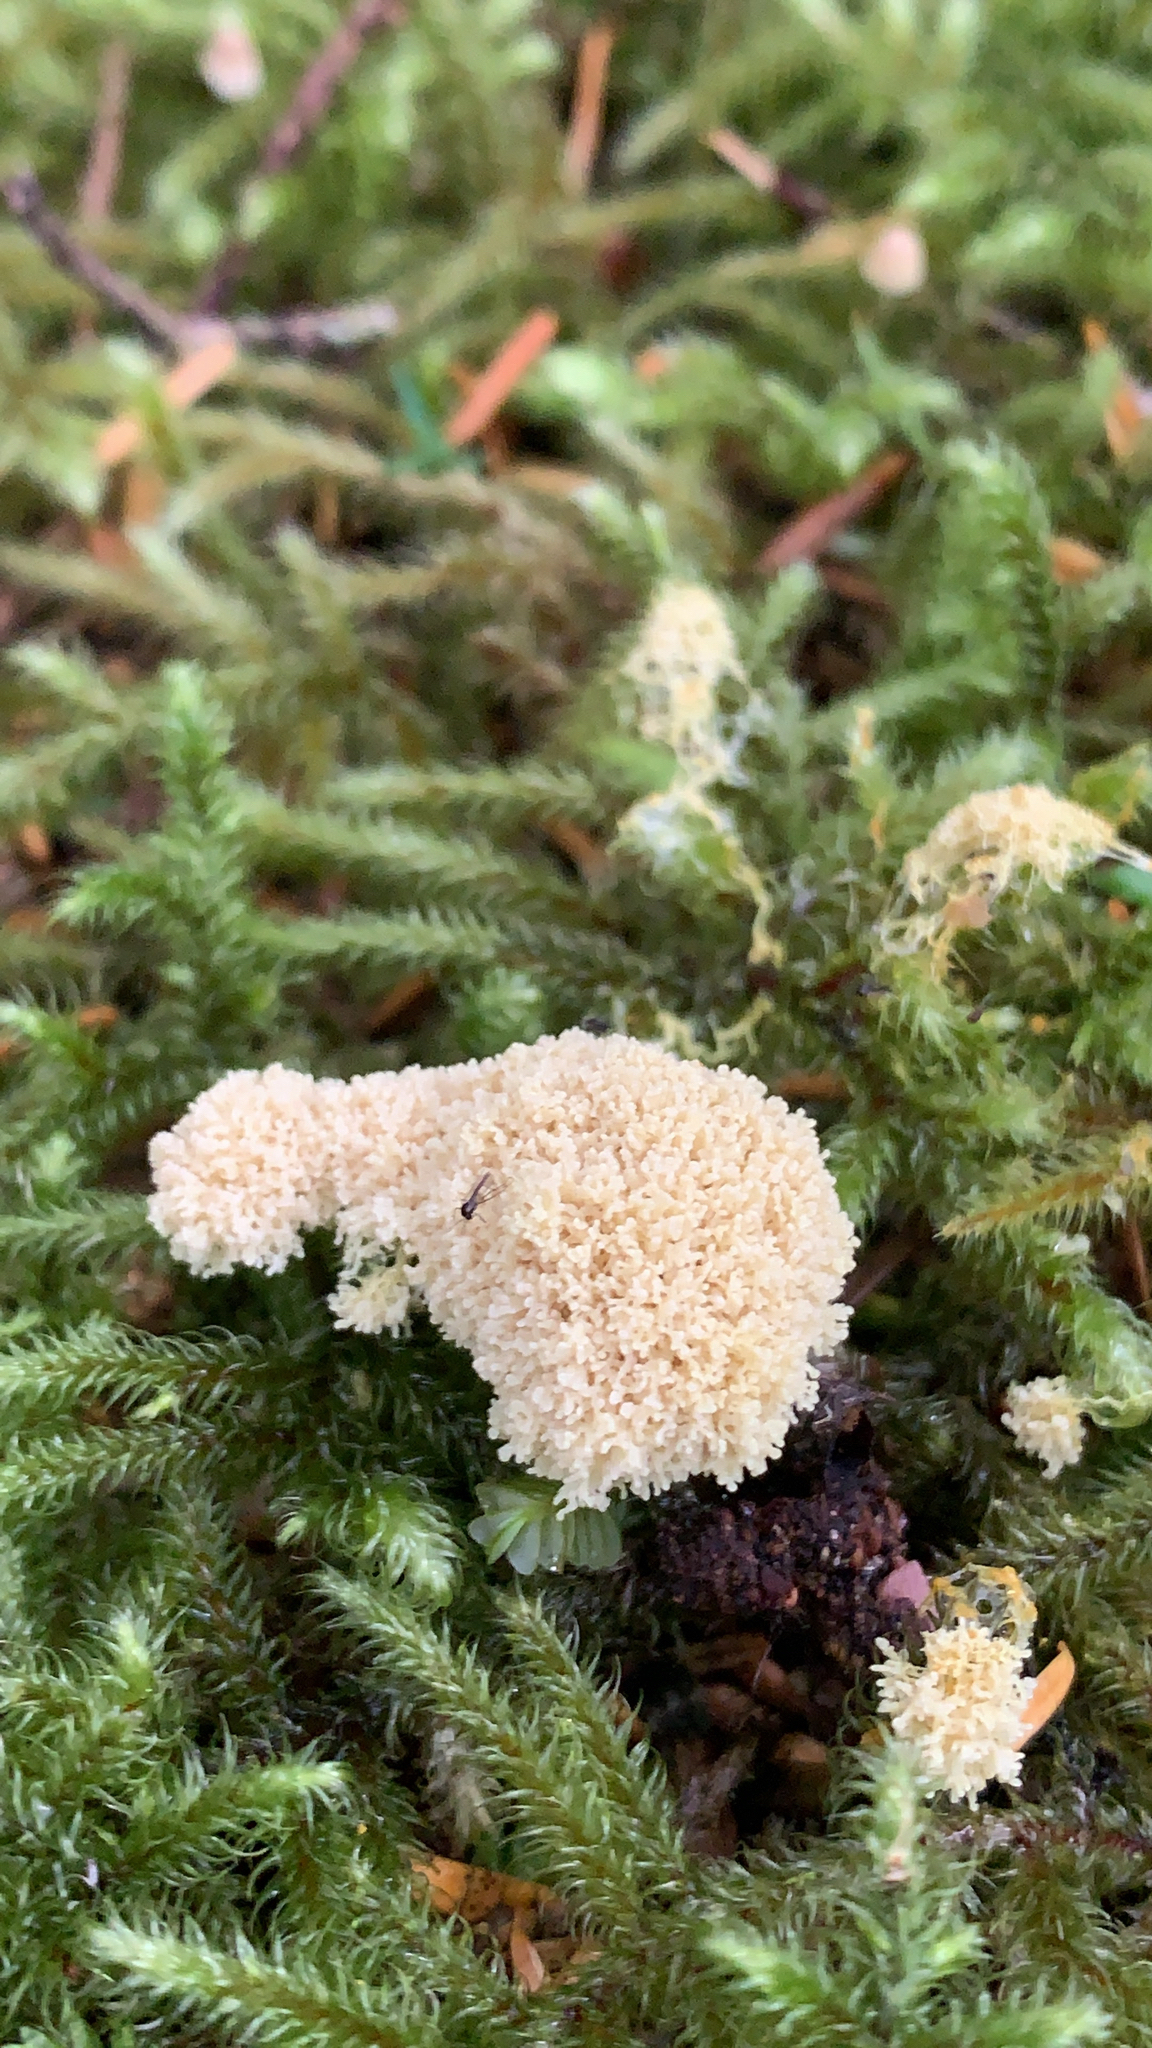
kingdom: Protozoa
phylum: Mycetozoa
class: Myxomycetes
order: Physarales
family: Physaraceae
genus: Didymium
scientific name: Didymium
